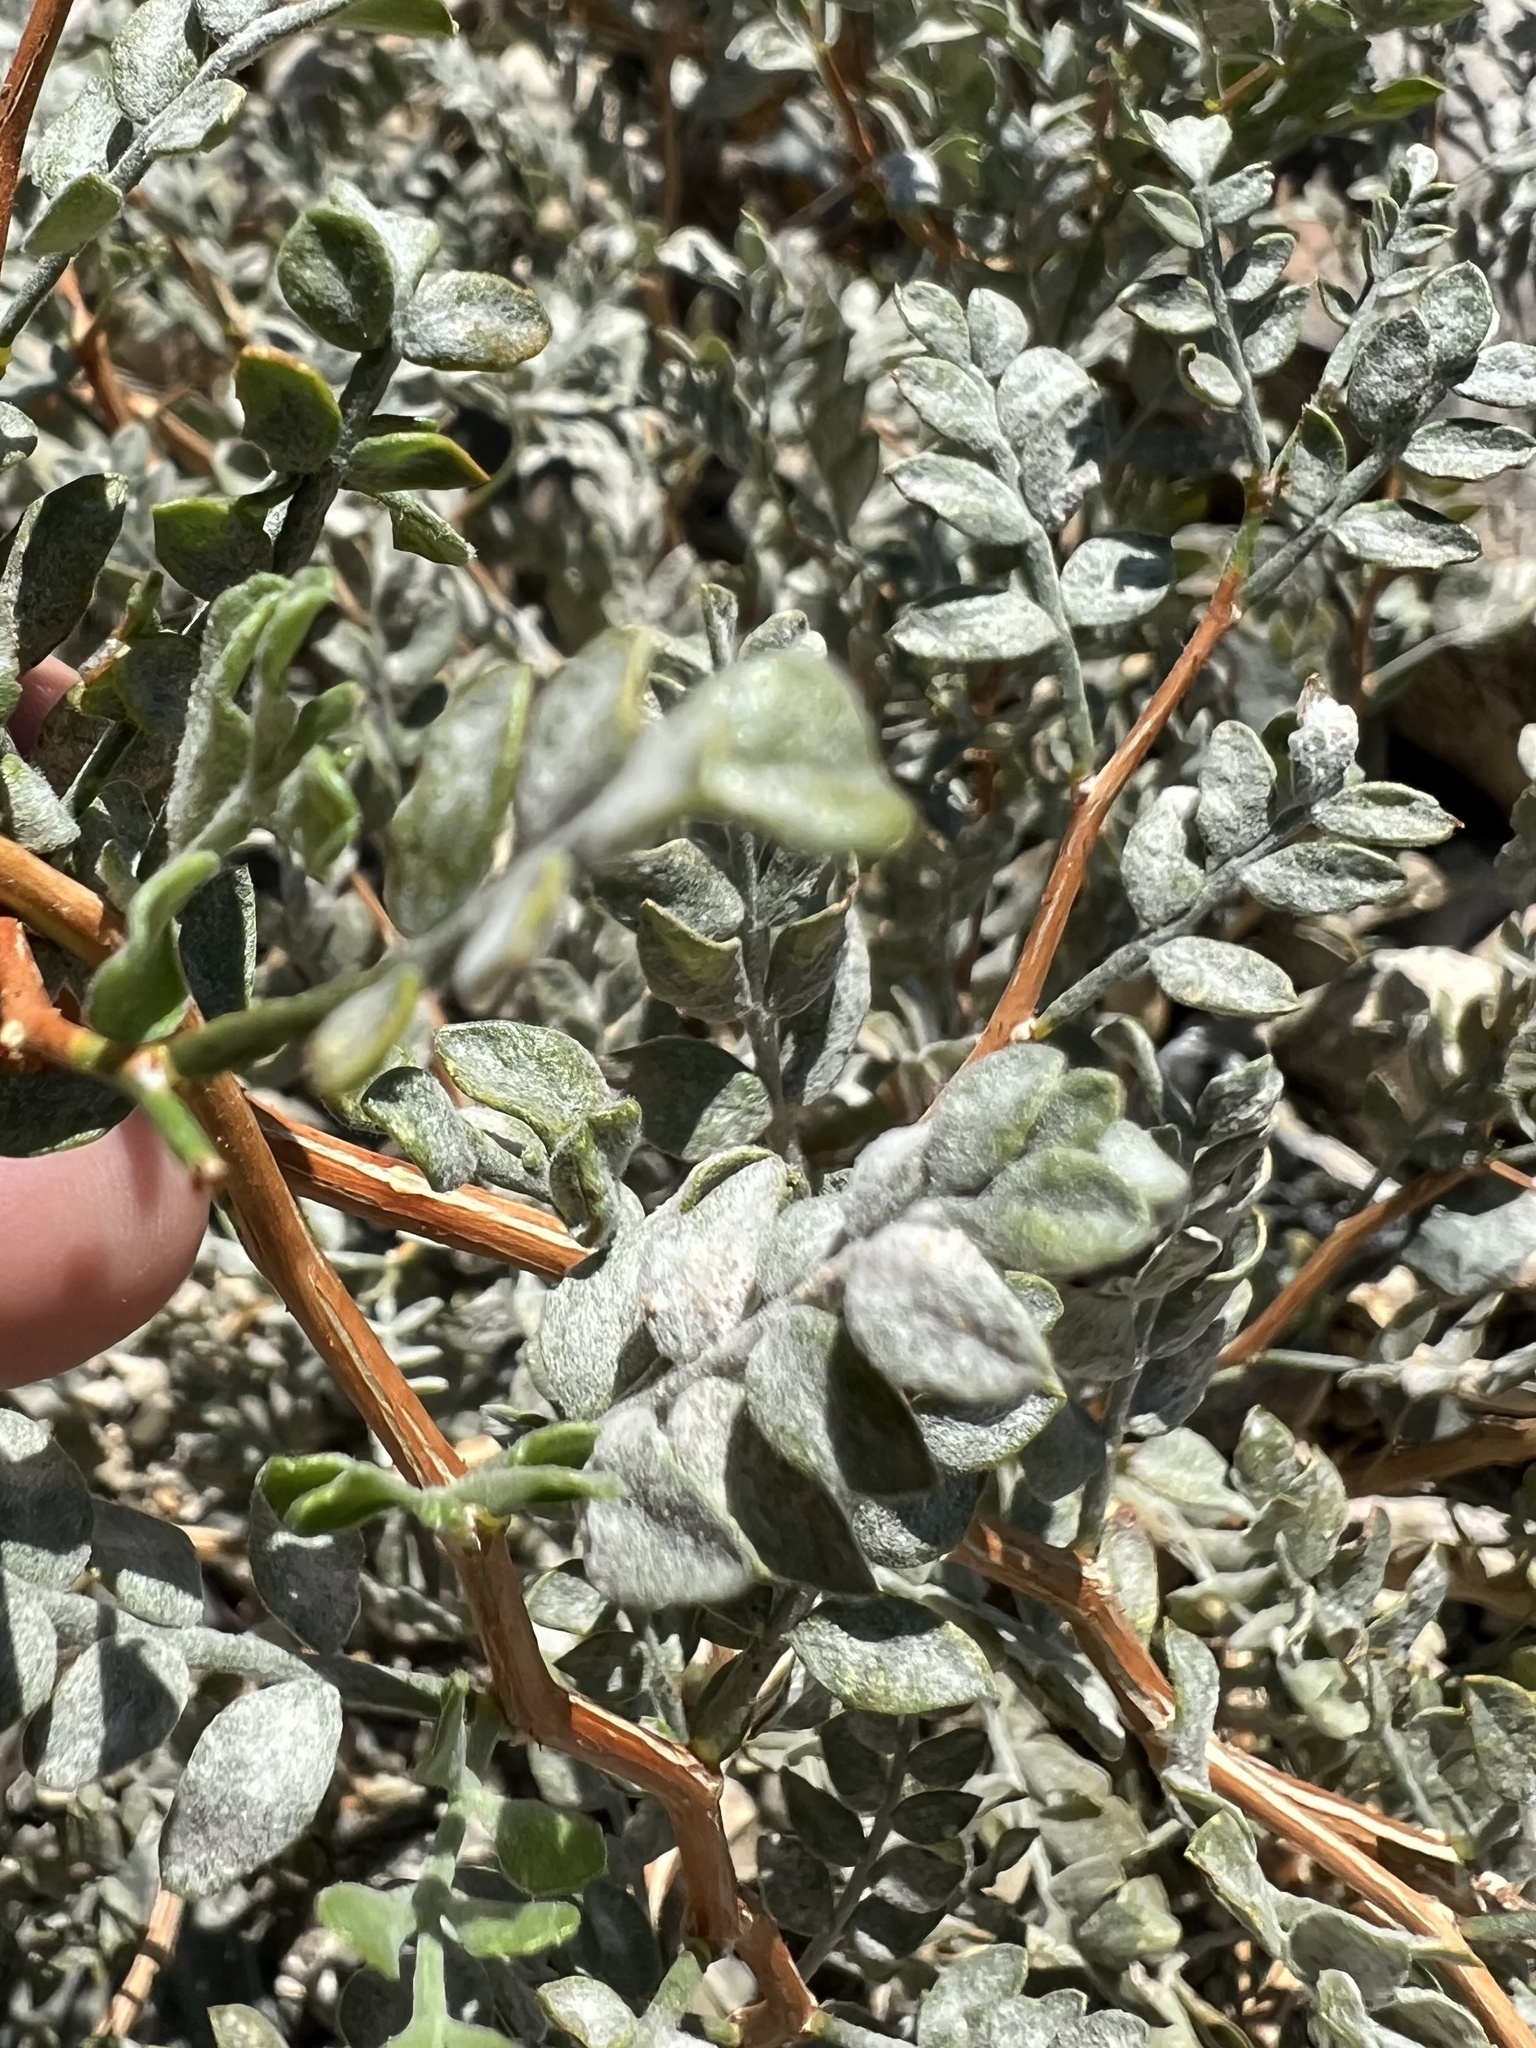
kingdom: Plantae
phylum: Tracheophyta
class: Magnoliopsida
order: Fabales
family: Fabaceae
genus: Psorothamnus
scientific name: Psorothamnus arborescens
